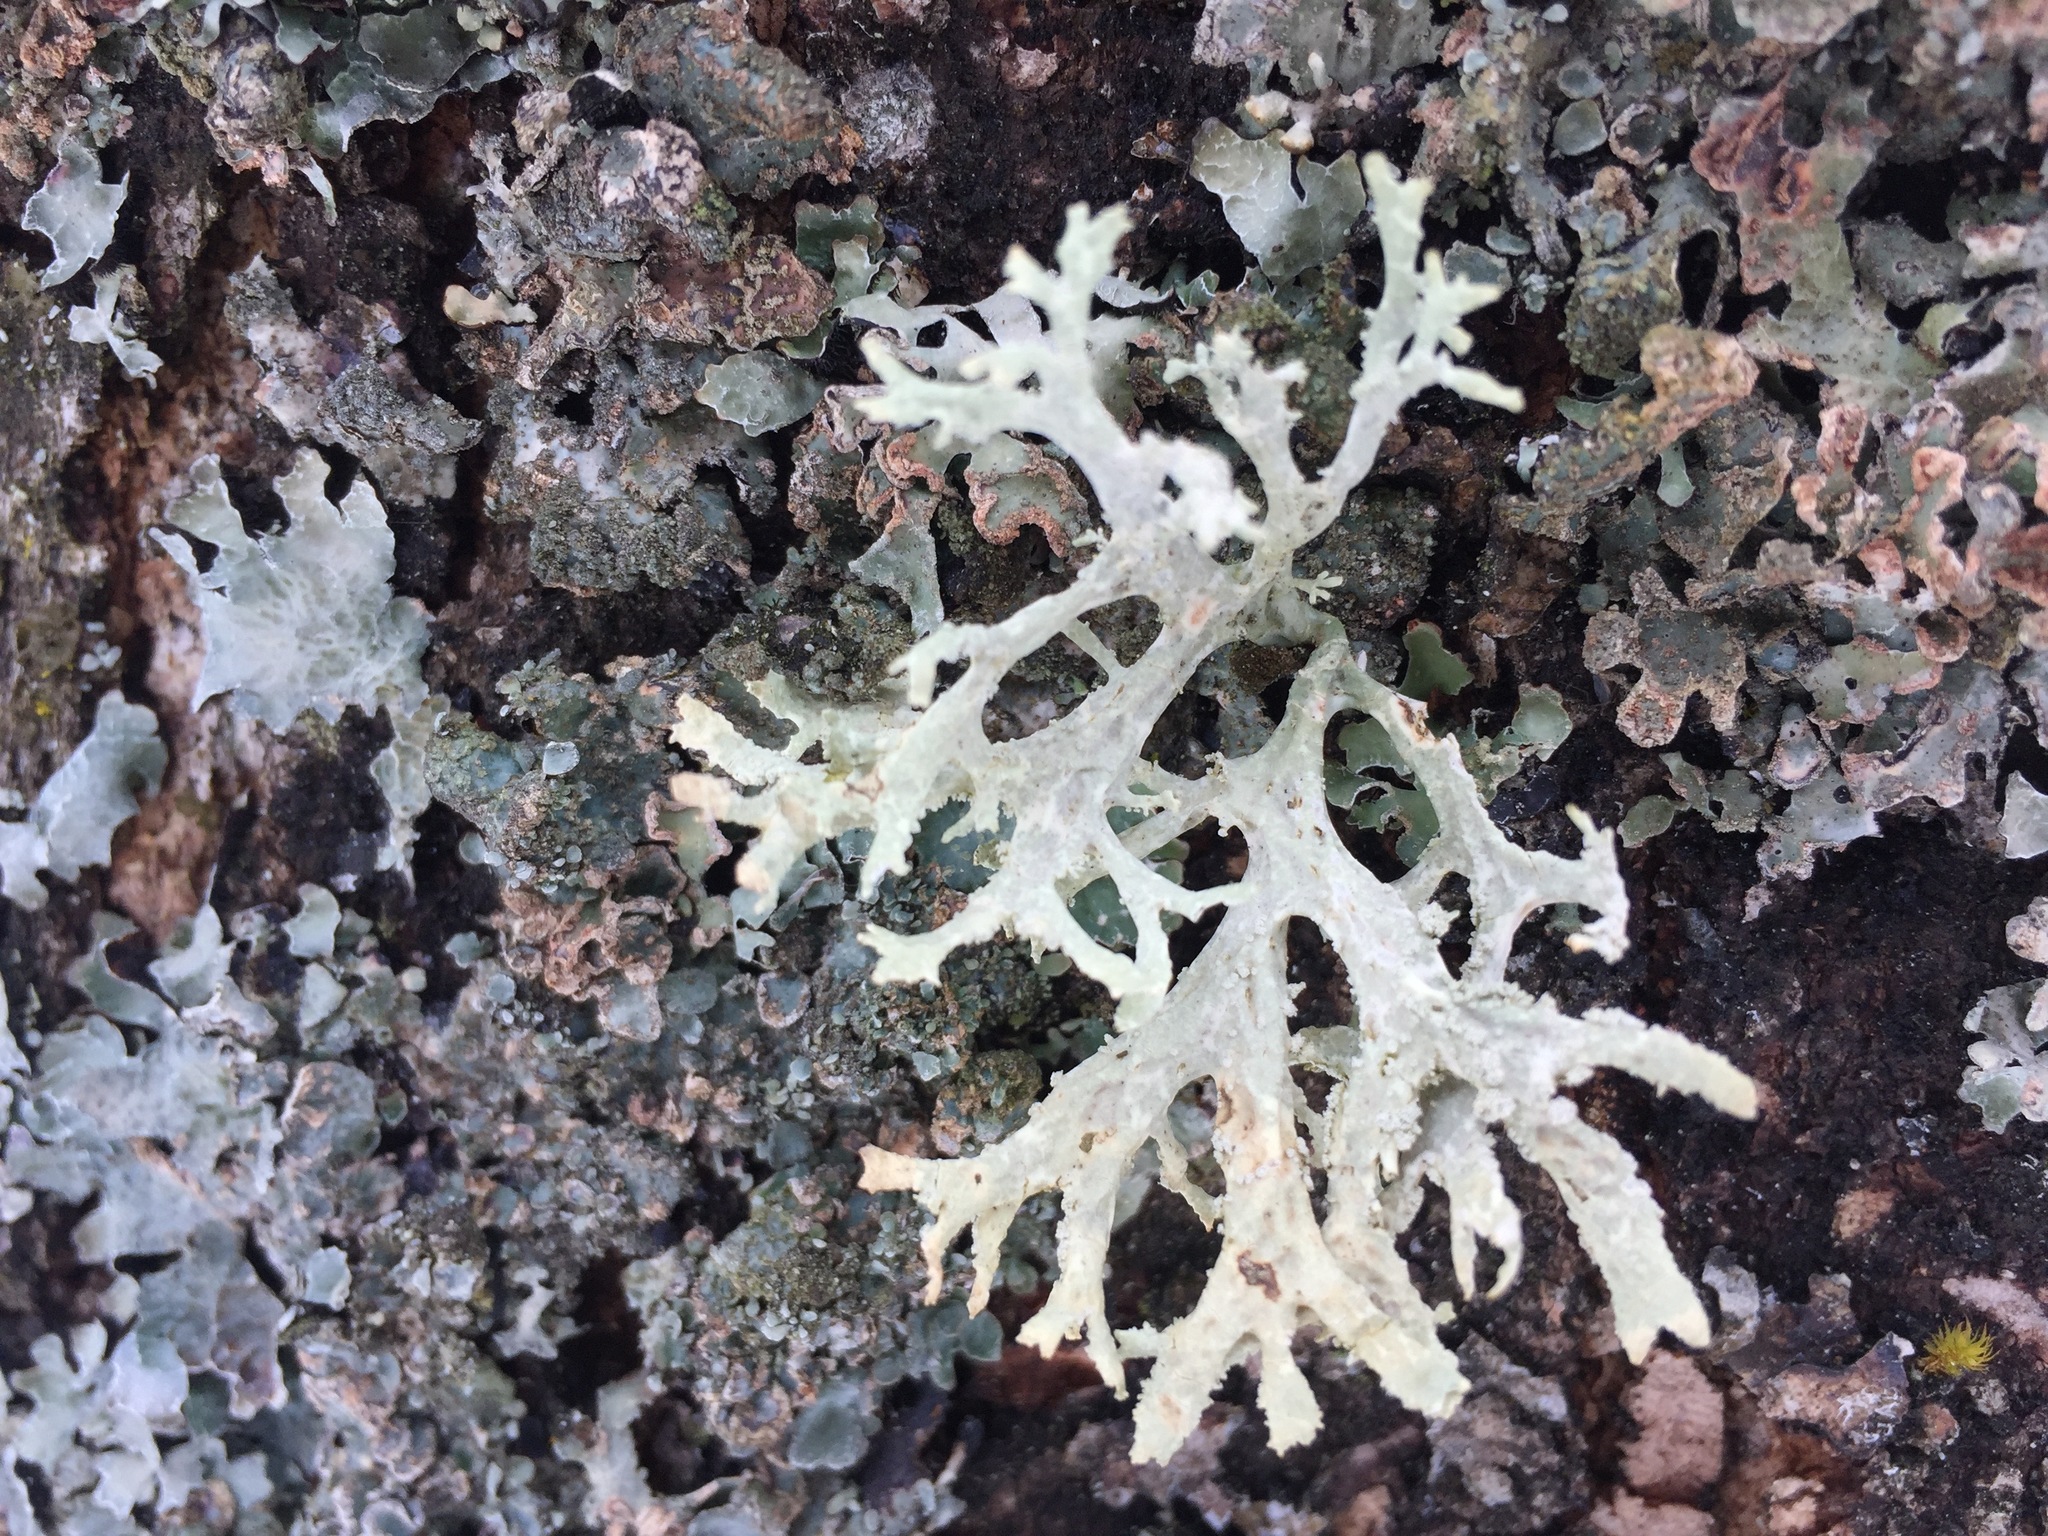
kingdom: Fungi
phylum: Ascomycota
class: Lecanoromycetes
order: Lecanorales
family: Parmeliaceae
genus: Evernia
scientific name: Evernia prunastri
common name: Oak moss
